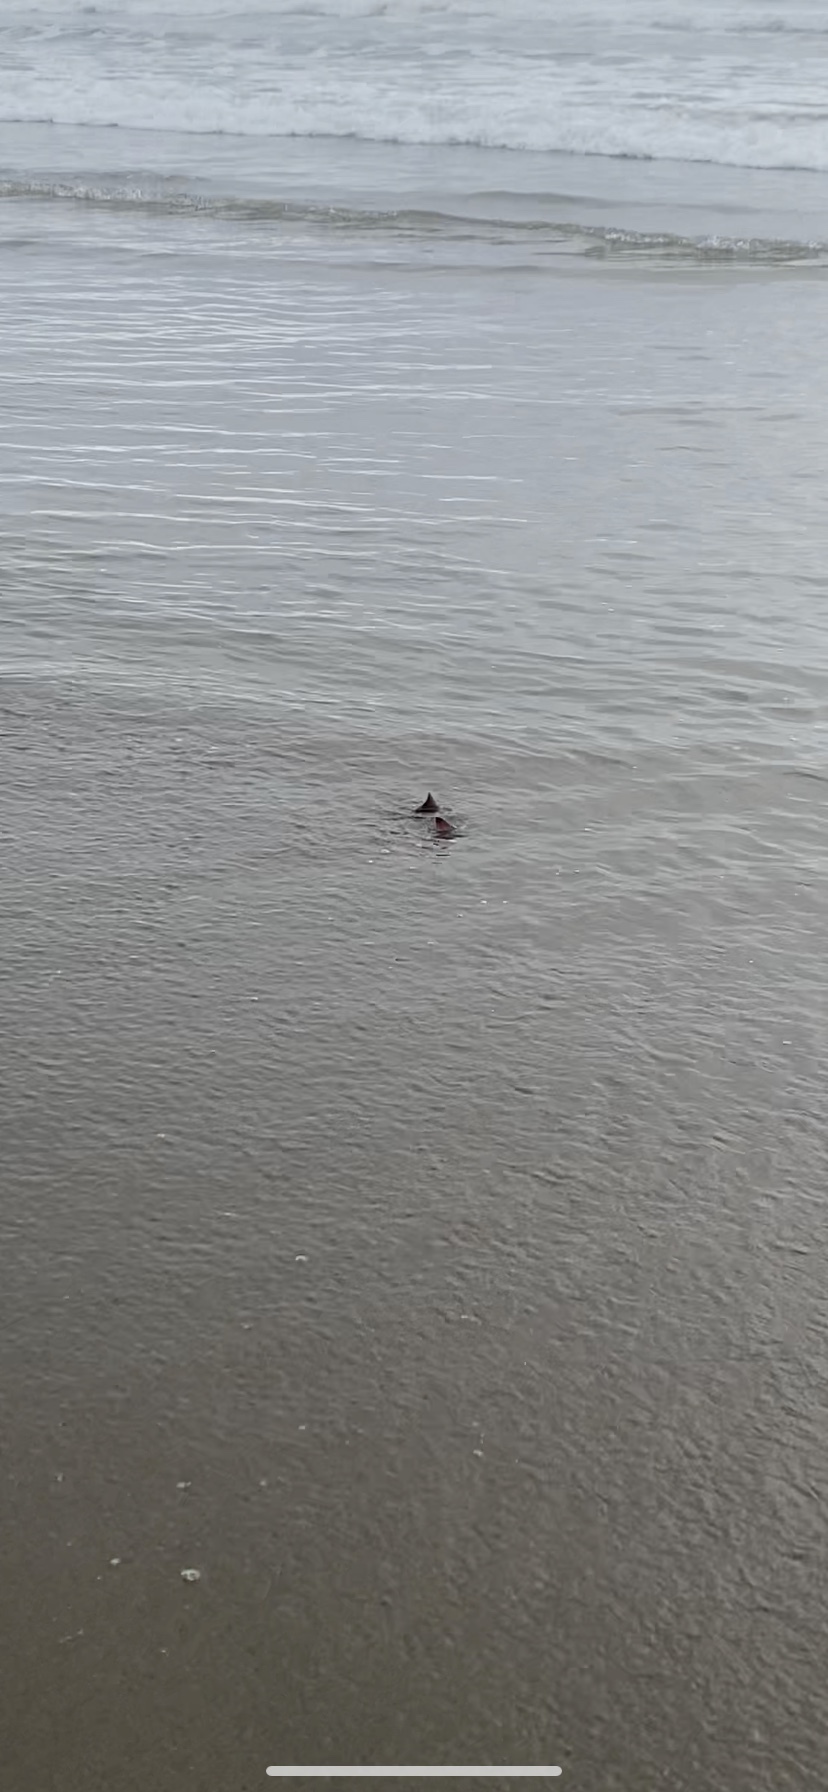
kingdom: Animalia
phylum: Chordata
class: Elasmobranchii
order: Myliobatiformes
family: Myliobatidae
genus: Myliobatis
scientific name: Myliobatis californica
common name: Bat ray
